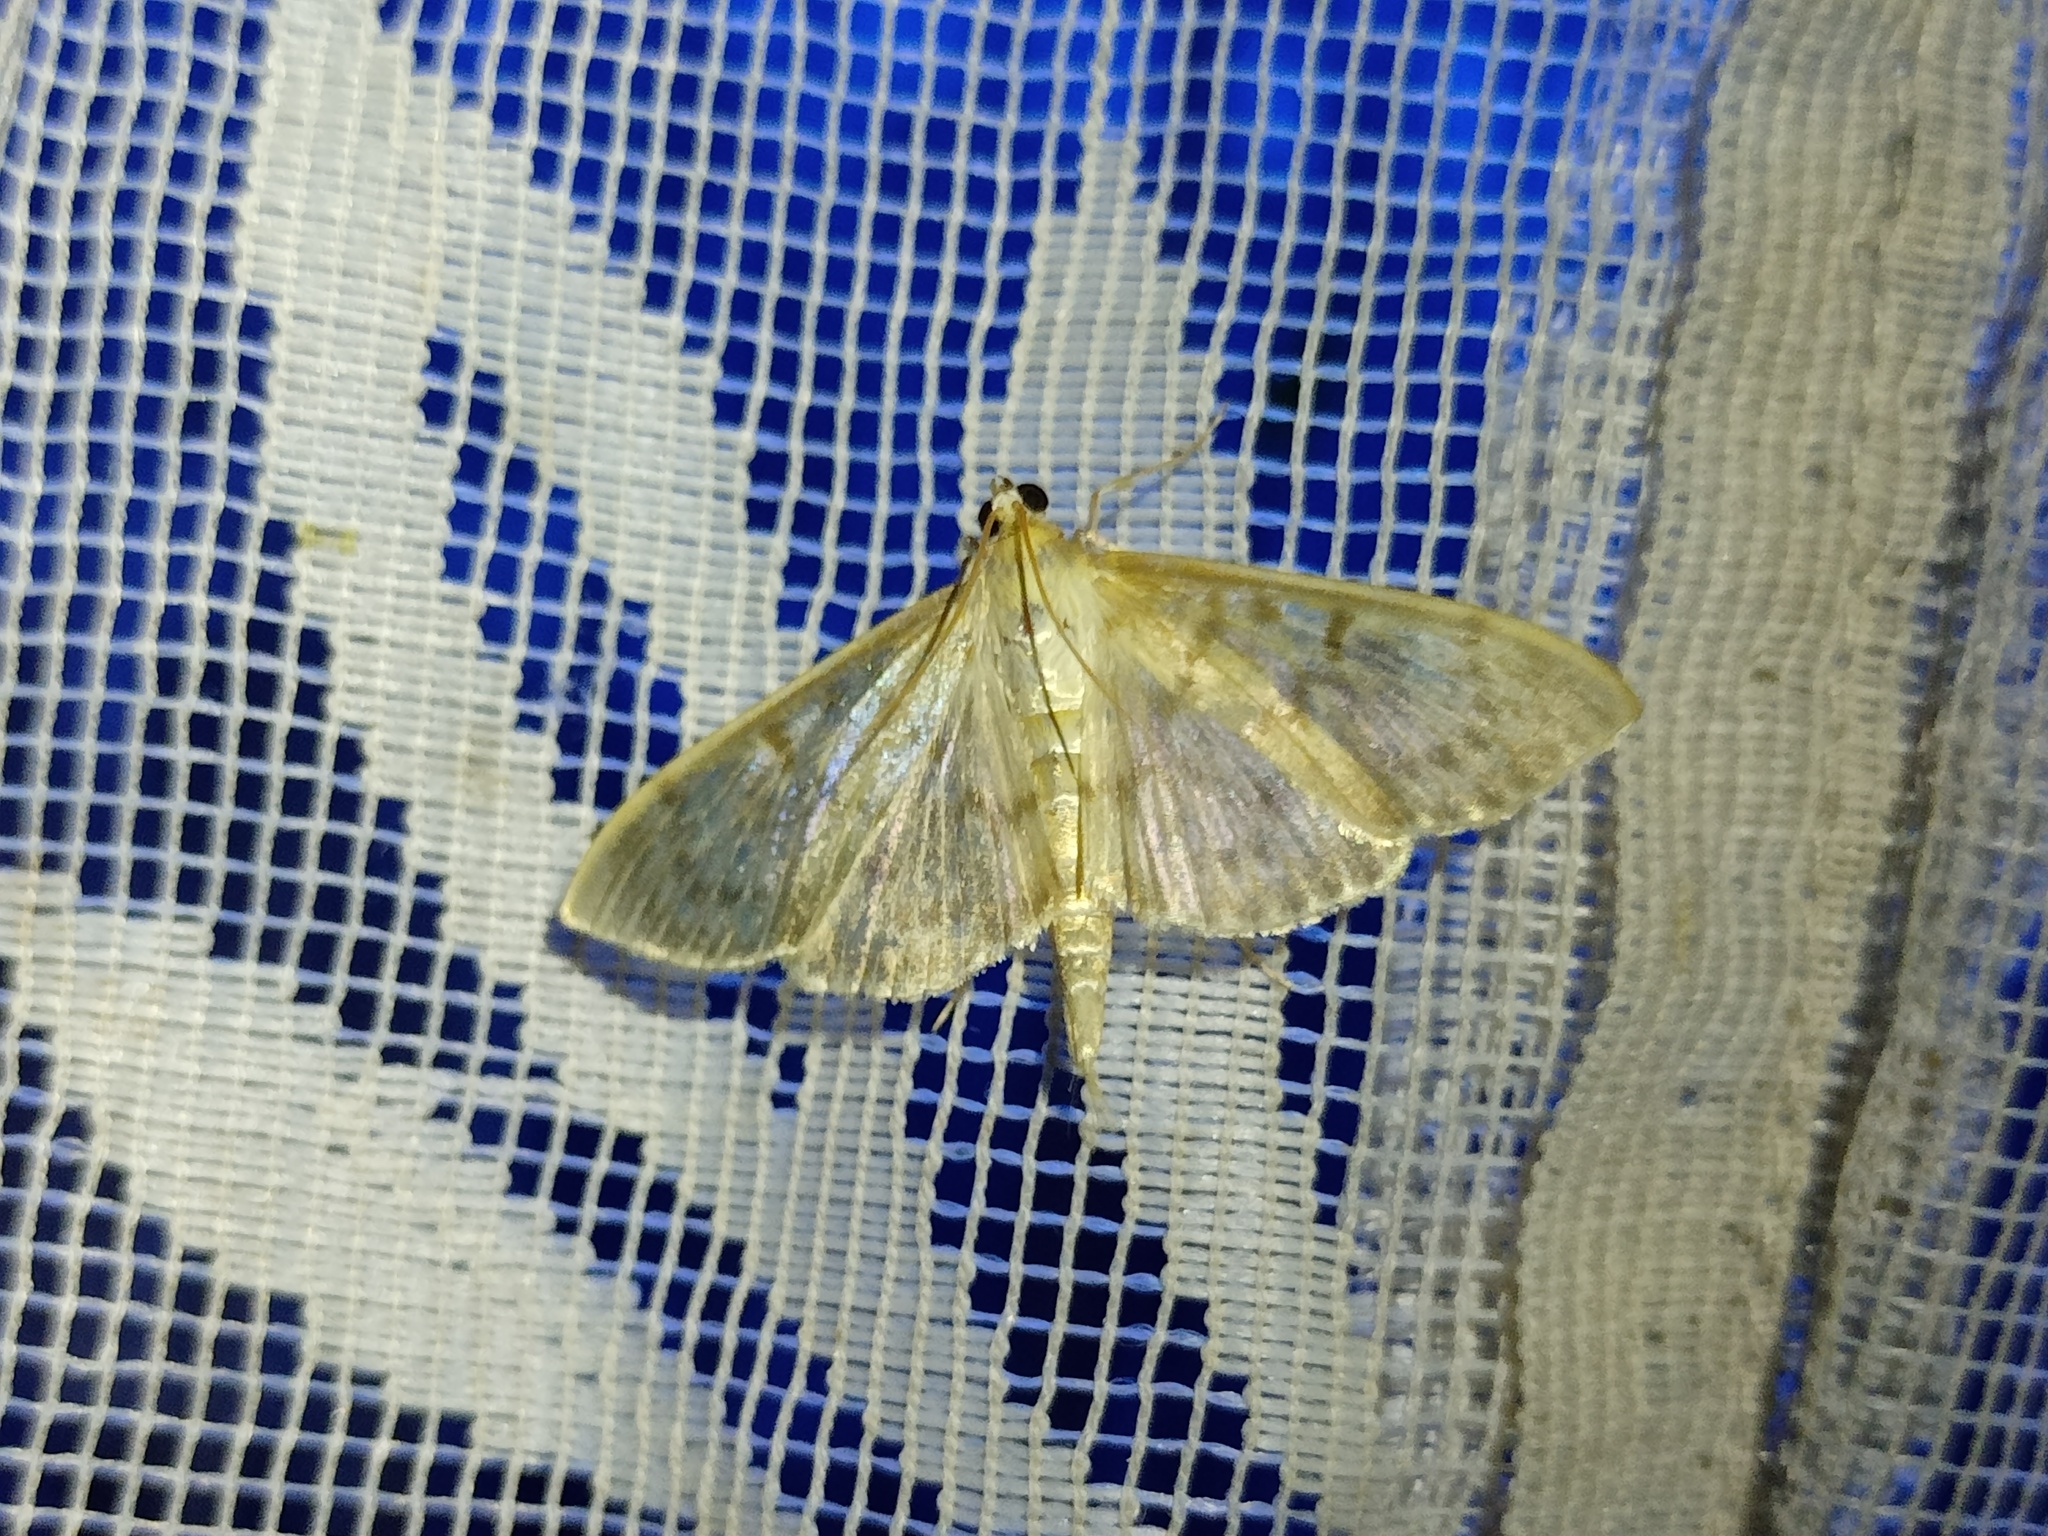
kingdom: Animalia
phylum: Arthropoda
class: Insecta
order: Lepidoptera
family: Crambidae
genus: Patania
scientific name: Patania ruralis
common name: Mother of pearl
